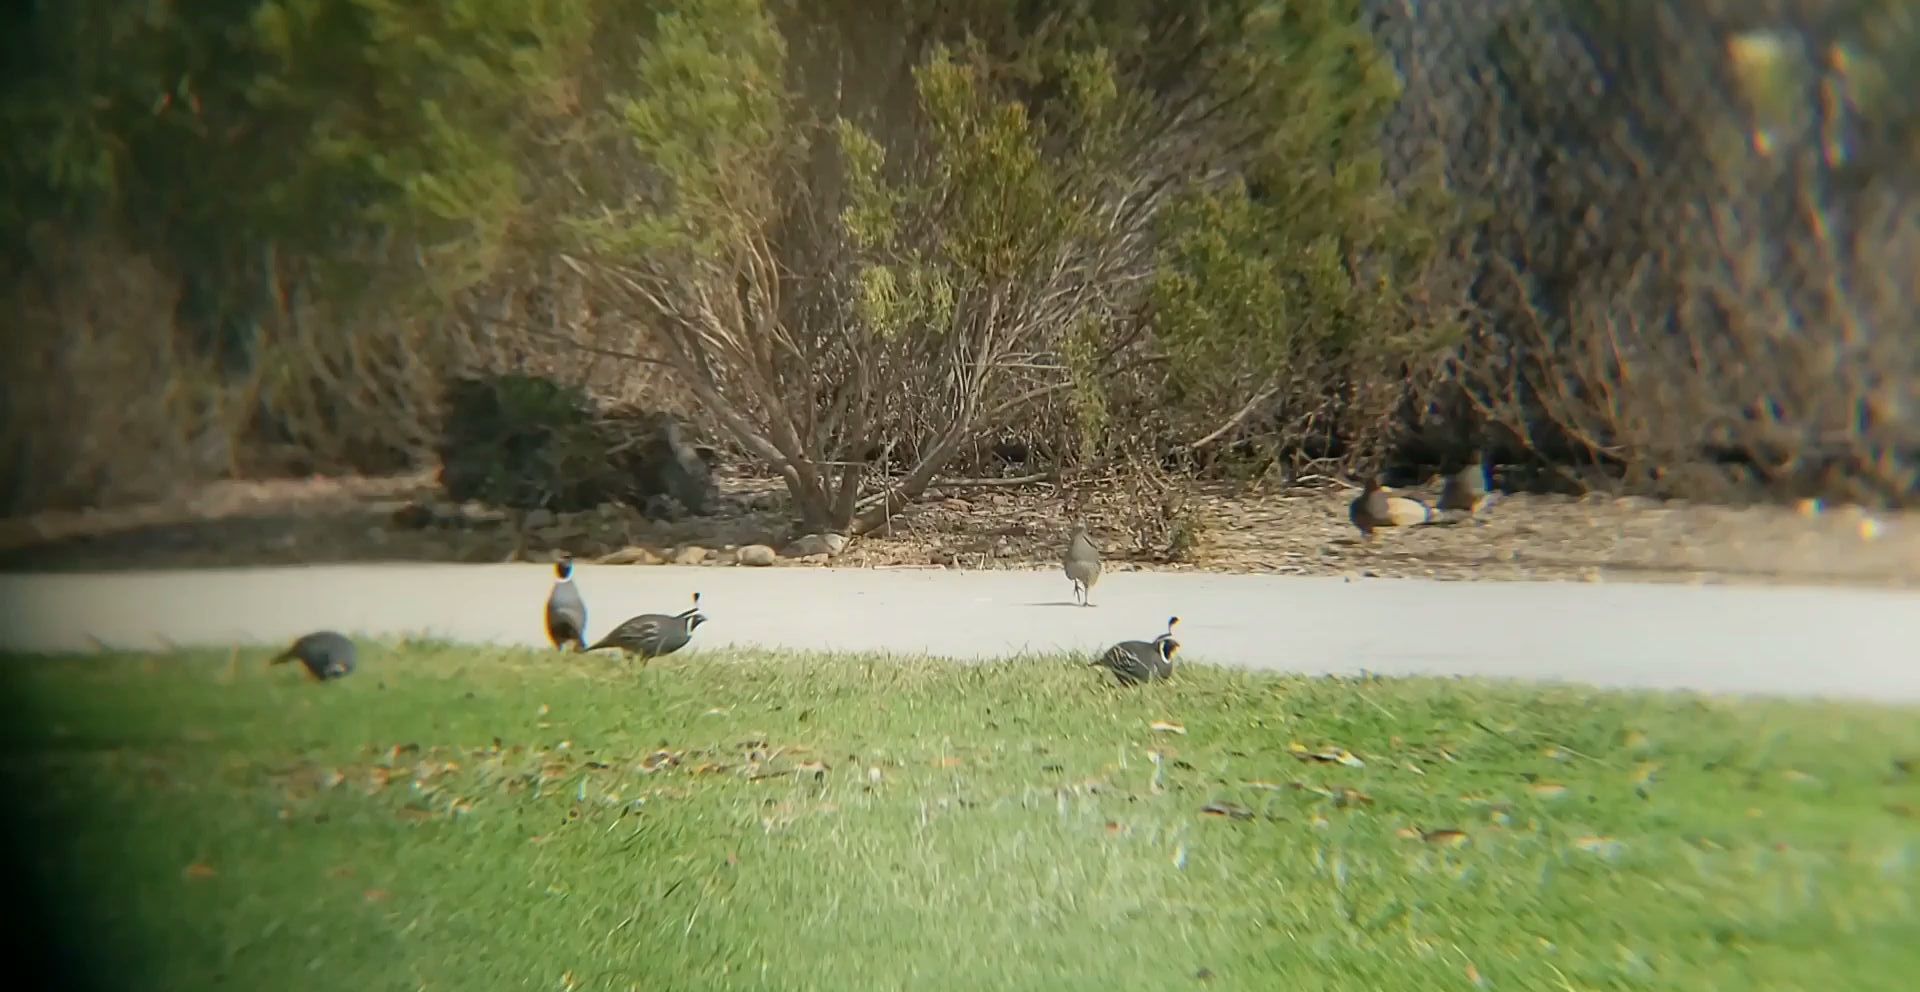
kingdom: Animalia
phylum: Chordata
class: Aves
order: Galliformes
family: Odontophoridae
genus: Callipepla
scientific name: Callipepla californica
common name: California quail
